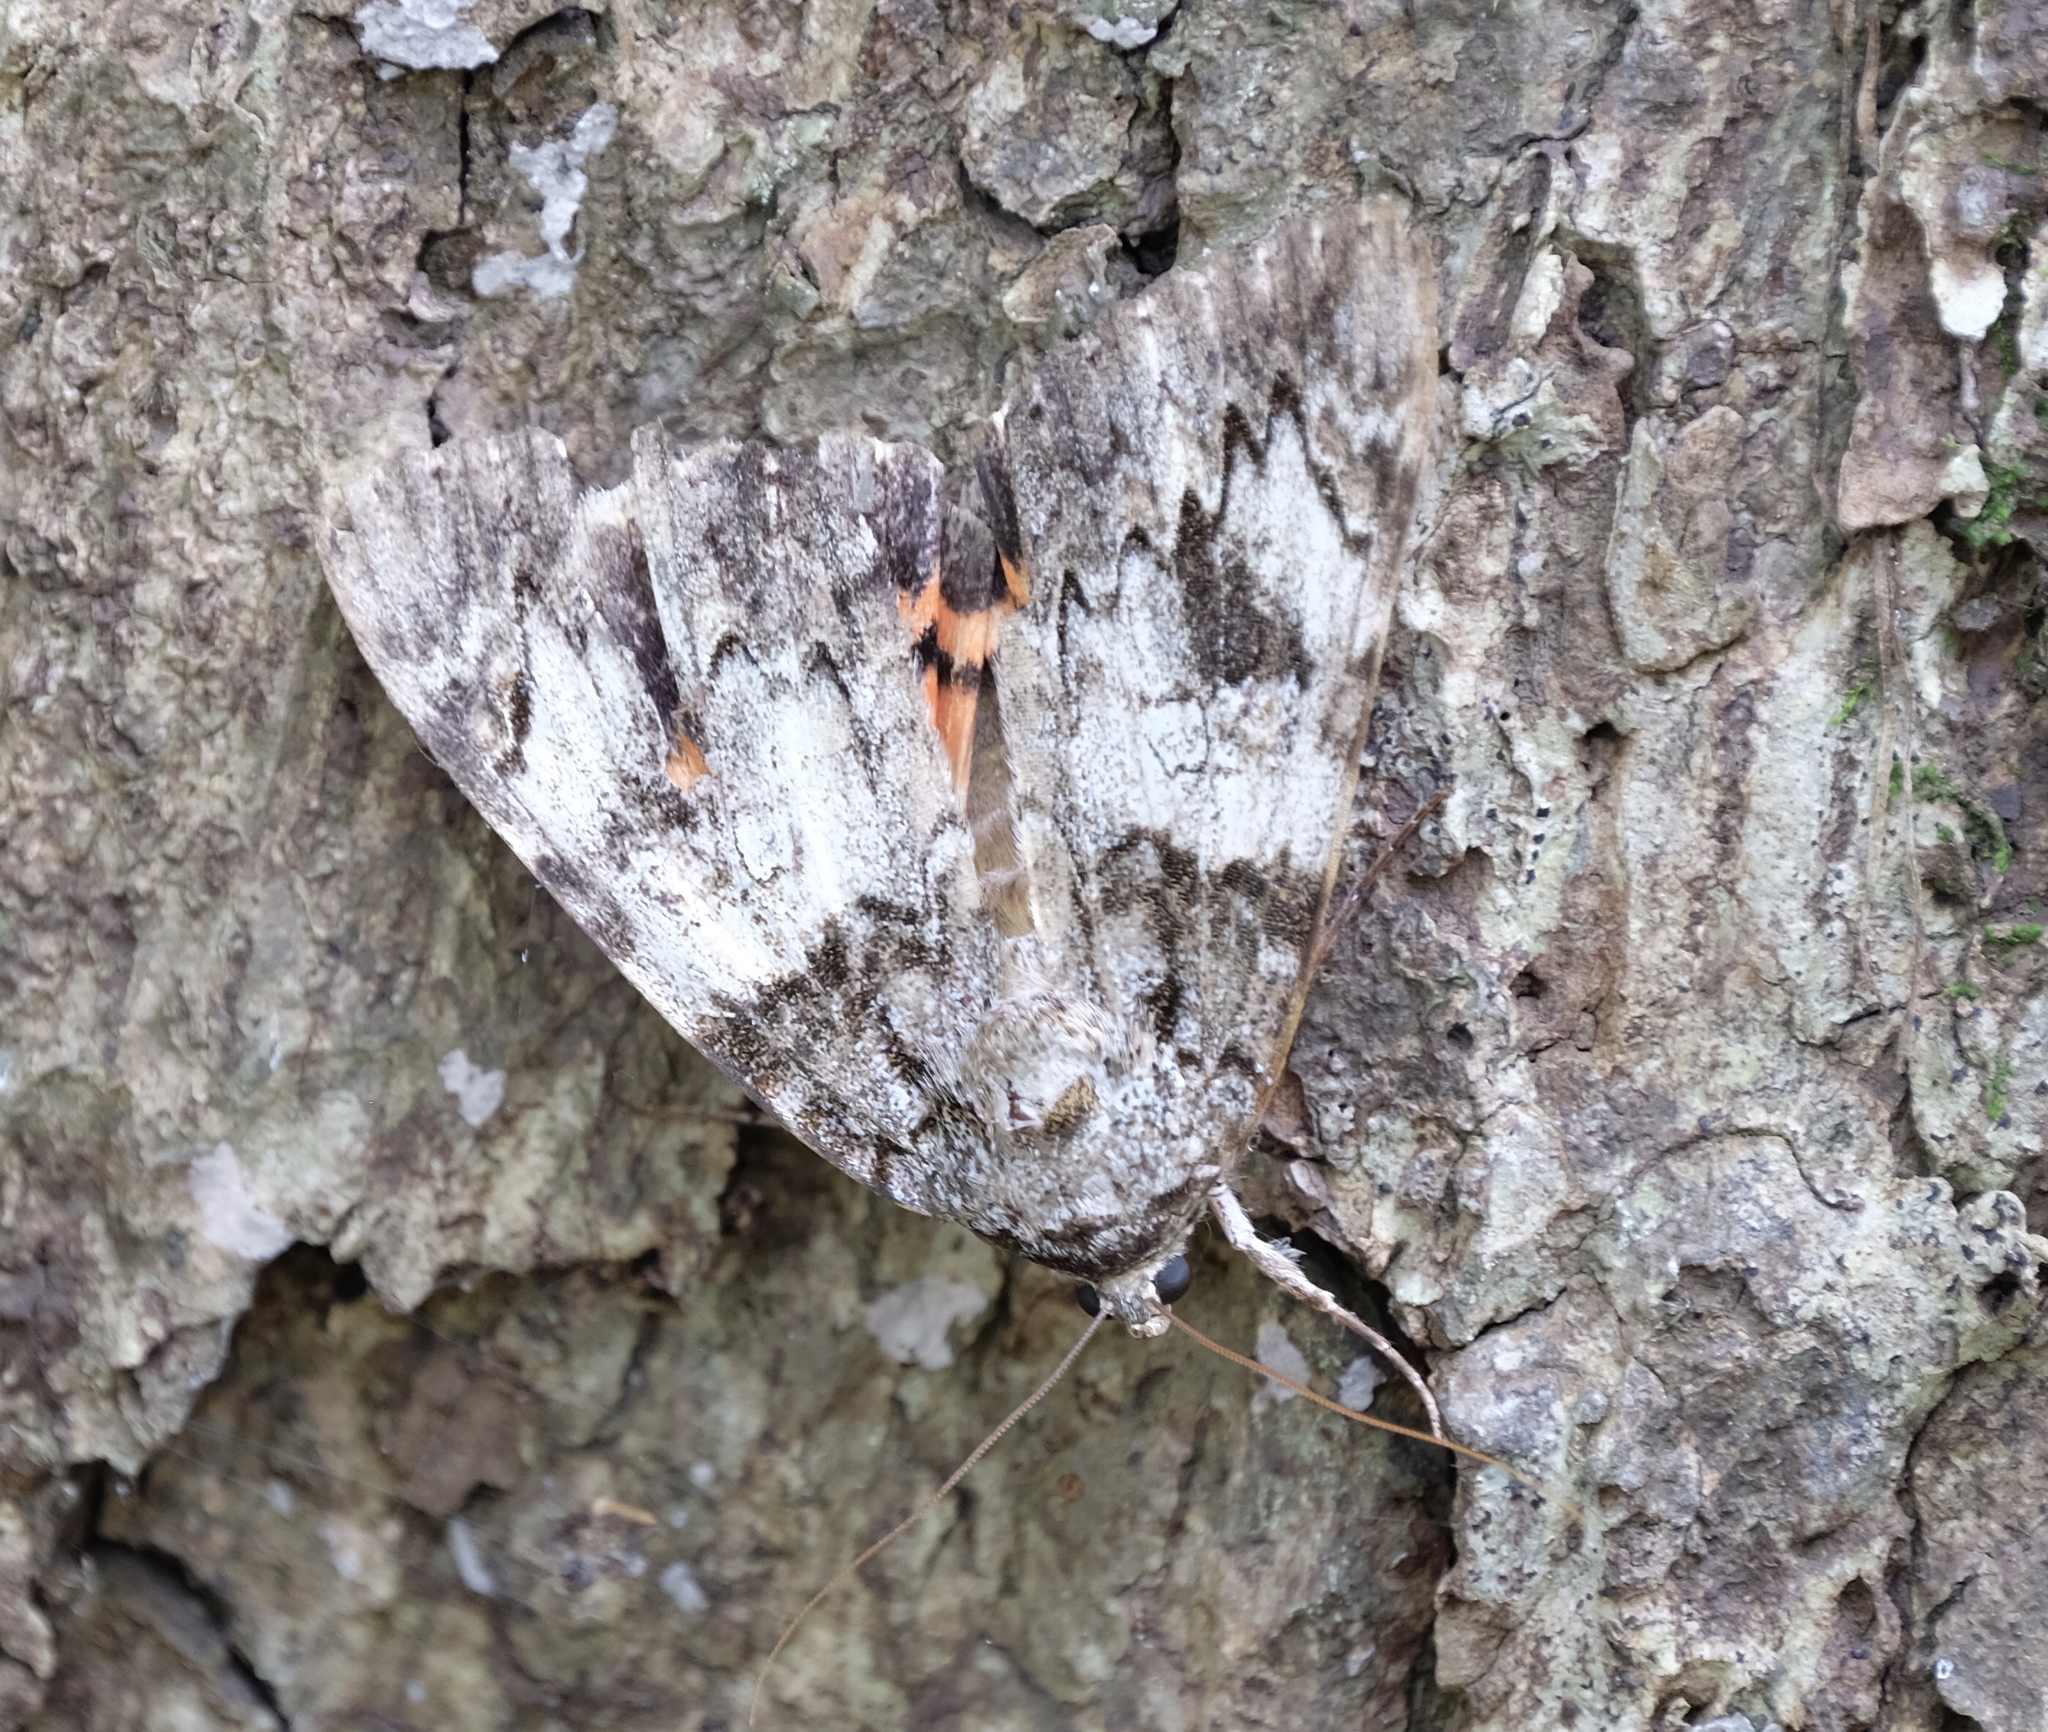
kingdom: Animalia
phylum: Arthropoda
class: Insecta
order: Lepidoptera
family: Erebidae
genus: Catocala
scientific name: Catocala ilia
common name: Ilia underwing
